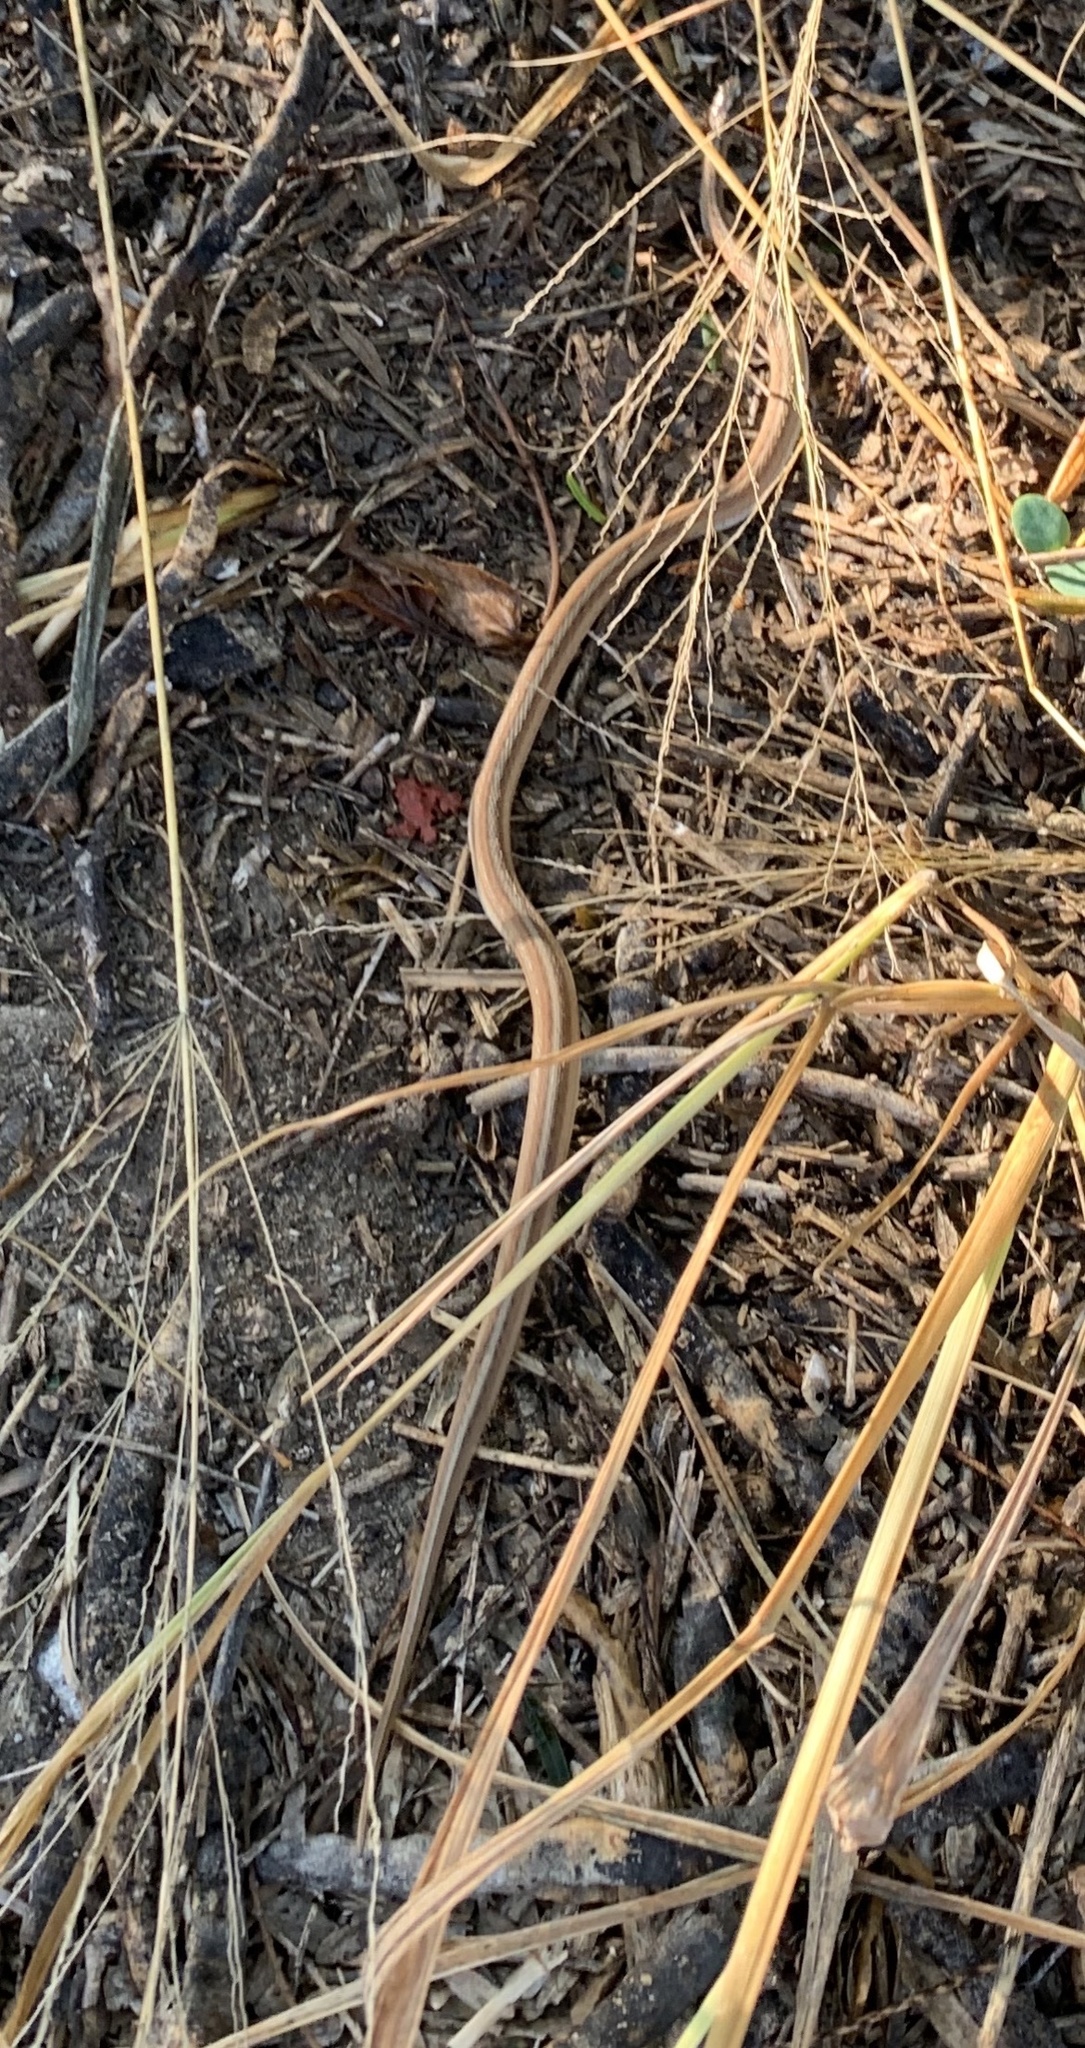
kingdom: Animalia
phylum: Chordata
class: Squamata
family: Colubridae
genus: Storeria
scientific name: Storeria dekayi
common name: (dekay’s) brown snake
